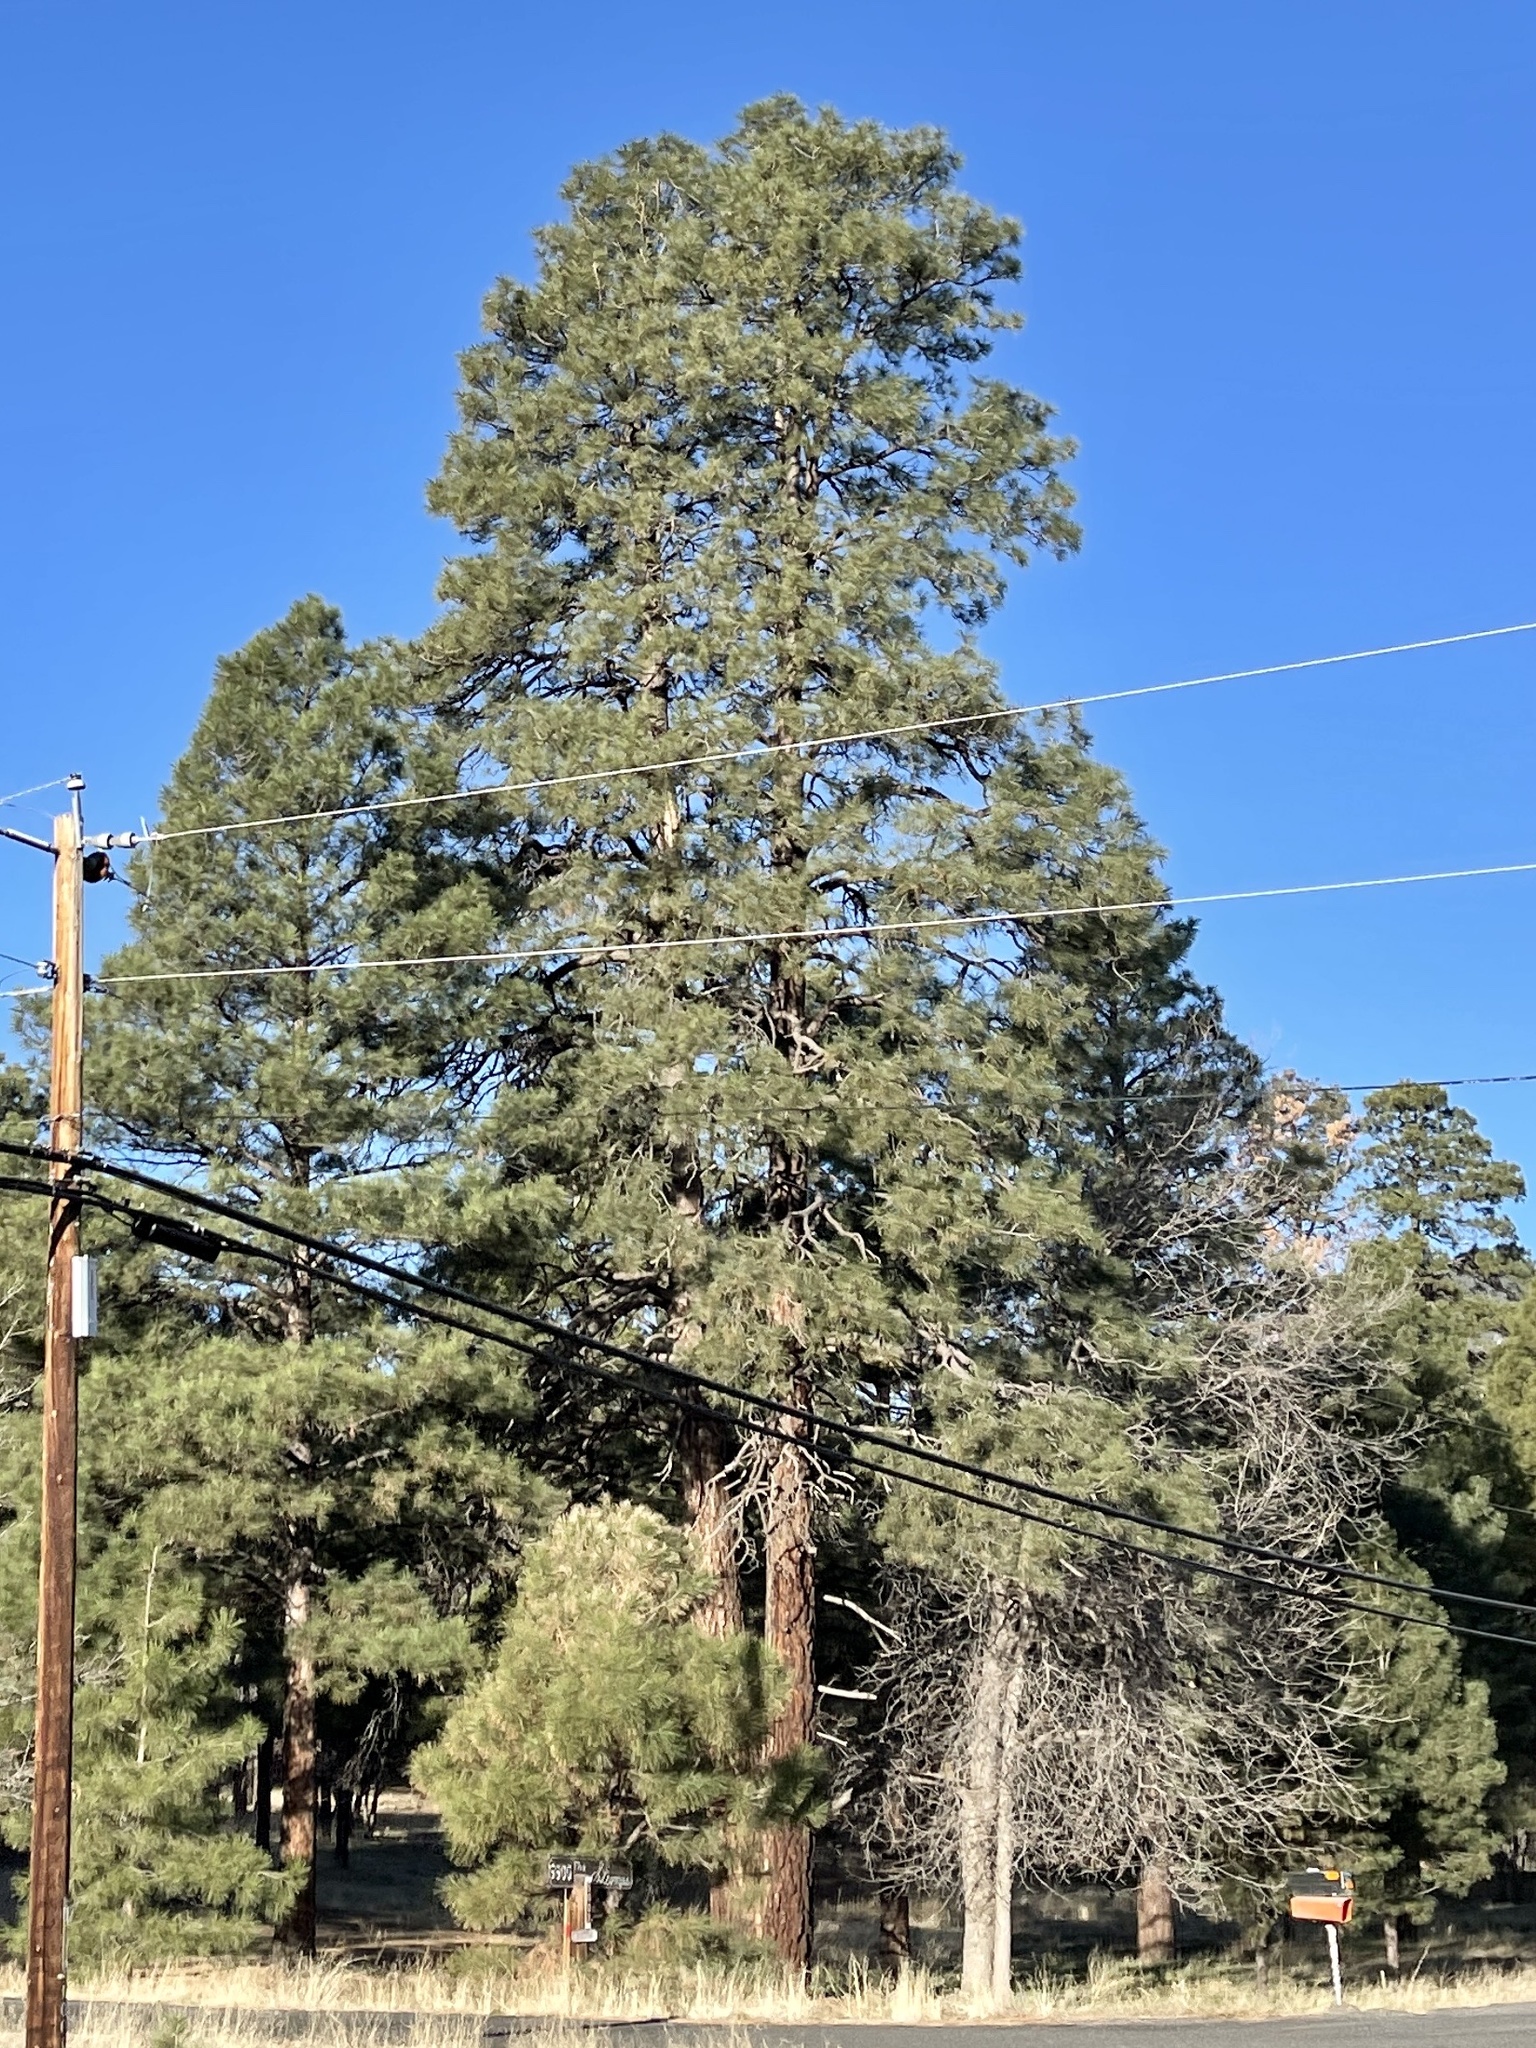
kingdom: Plantae
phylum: Tracheophyta
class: Pinopsida
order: Pinales
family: Pinaceae
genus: Pinus
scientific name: Pinus ponderosa
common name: Western yellow-pine
